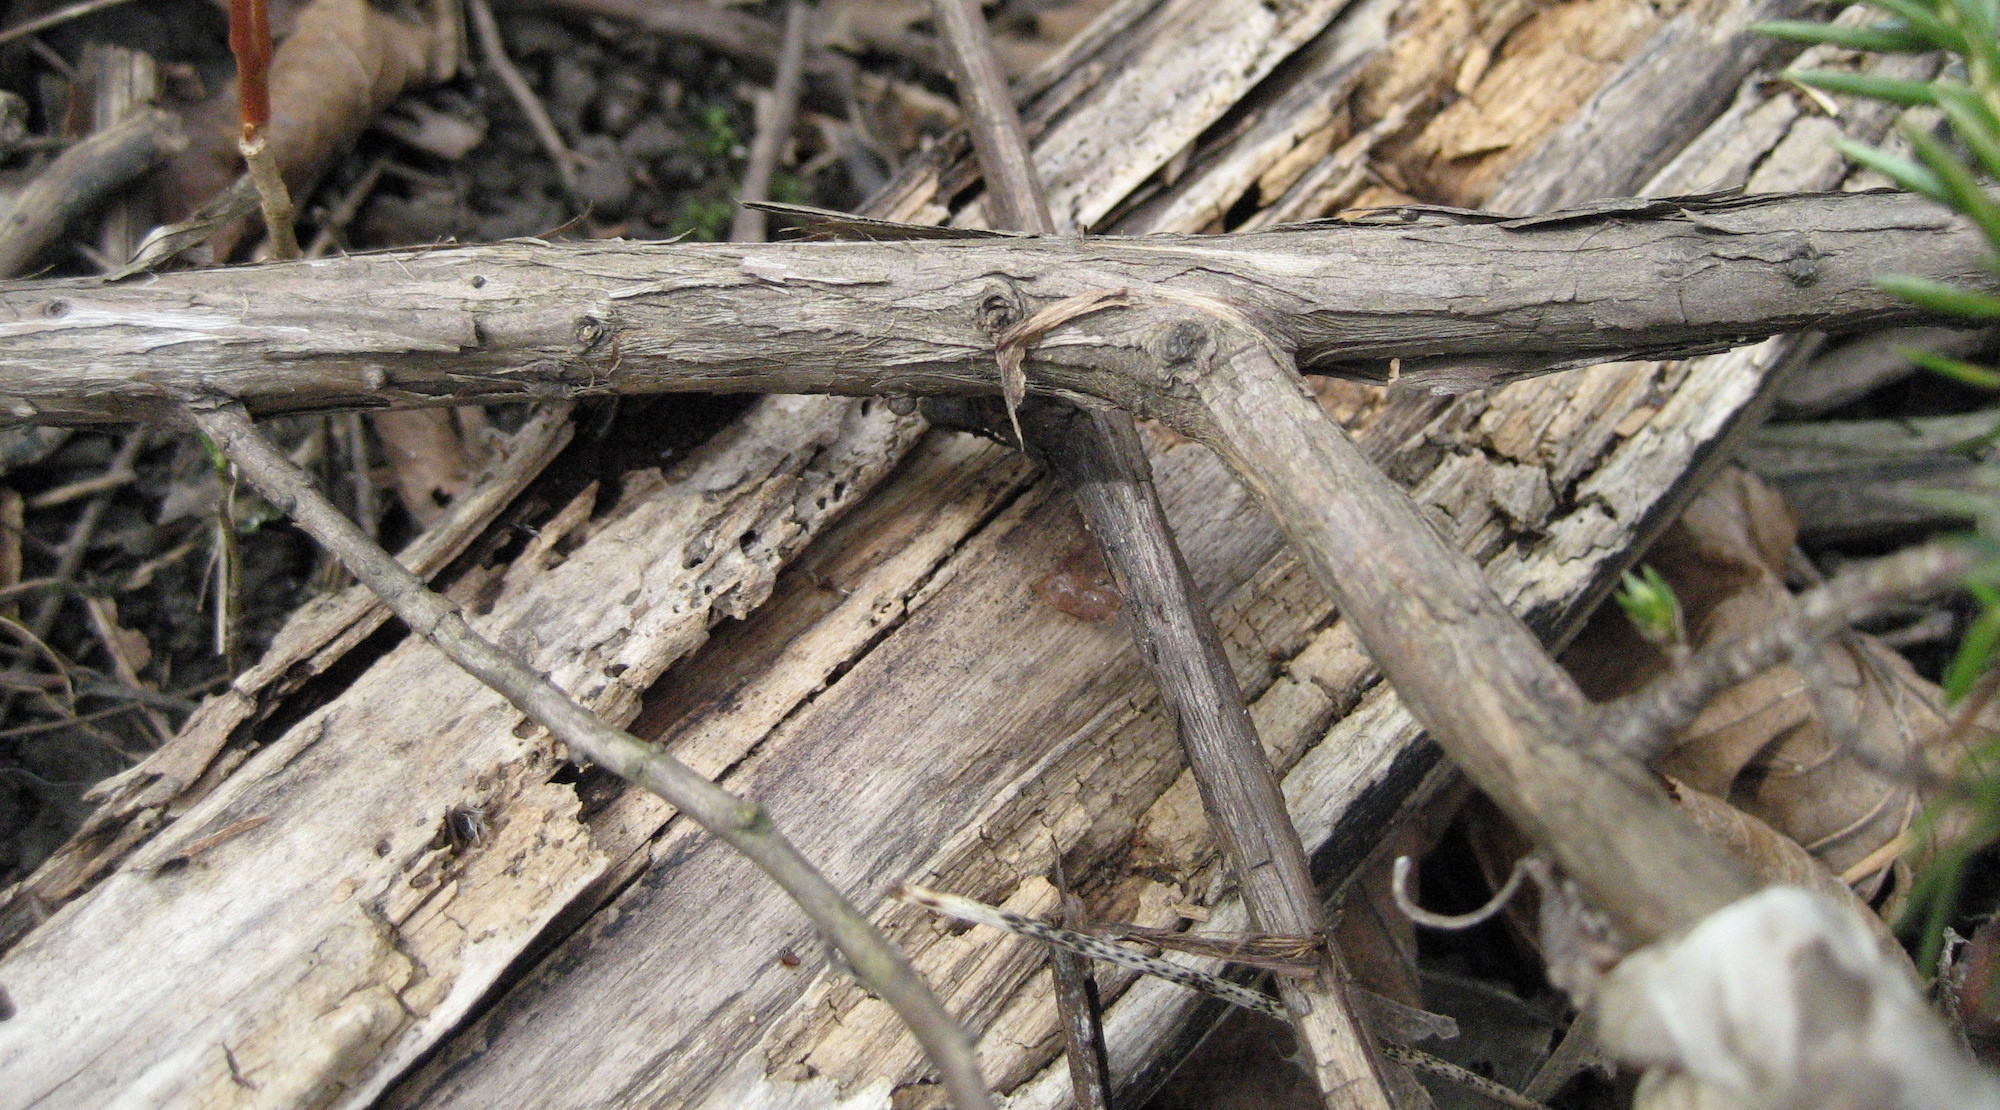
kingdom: Plantae
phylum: Tracheophyta
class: Pinopsida
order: Pinales
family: Cupressaceae
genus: Juniperus
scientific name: Juniperus communis
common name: Common juniper
